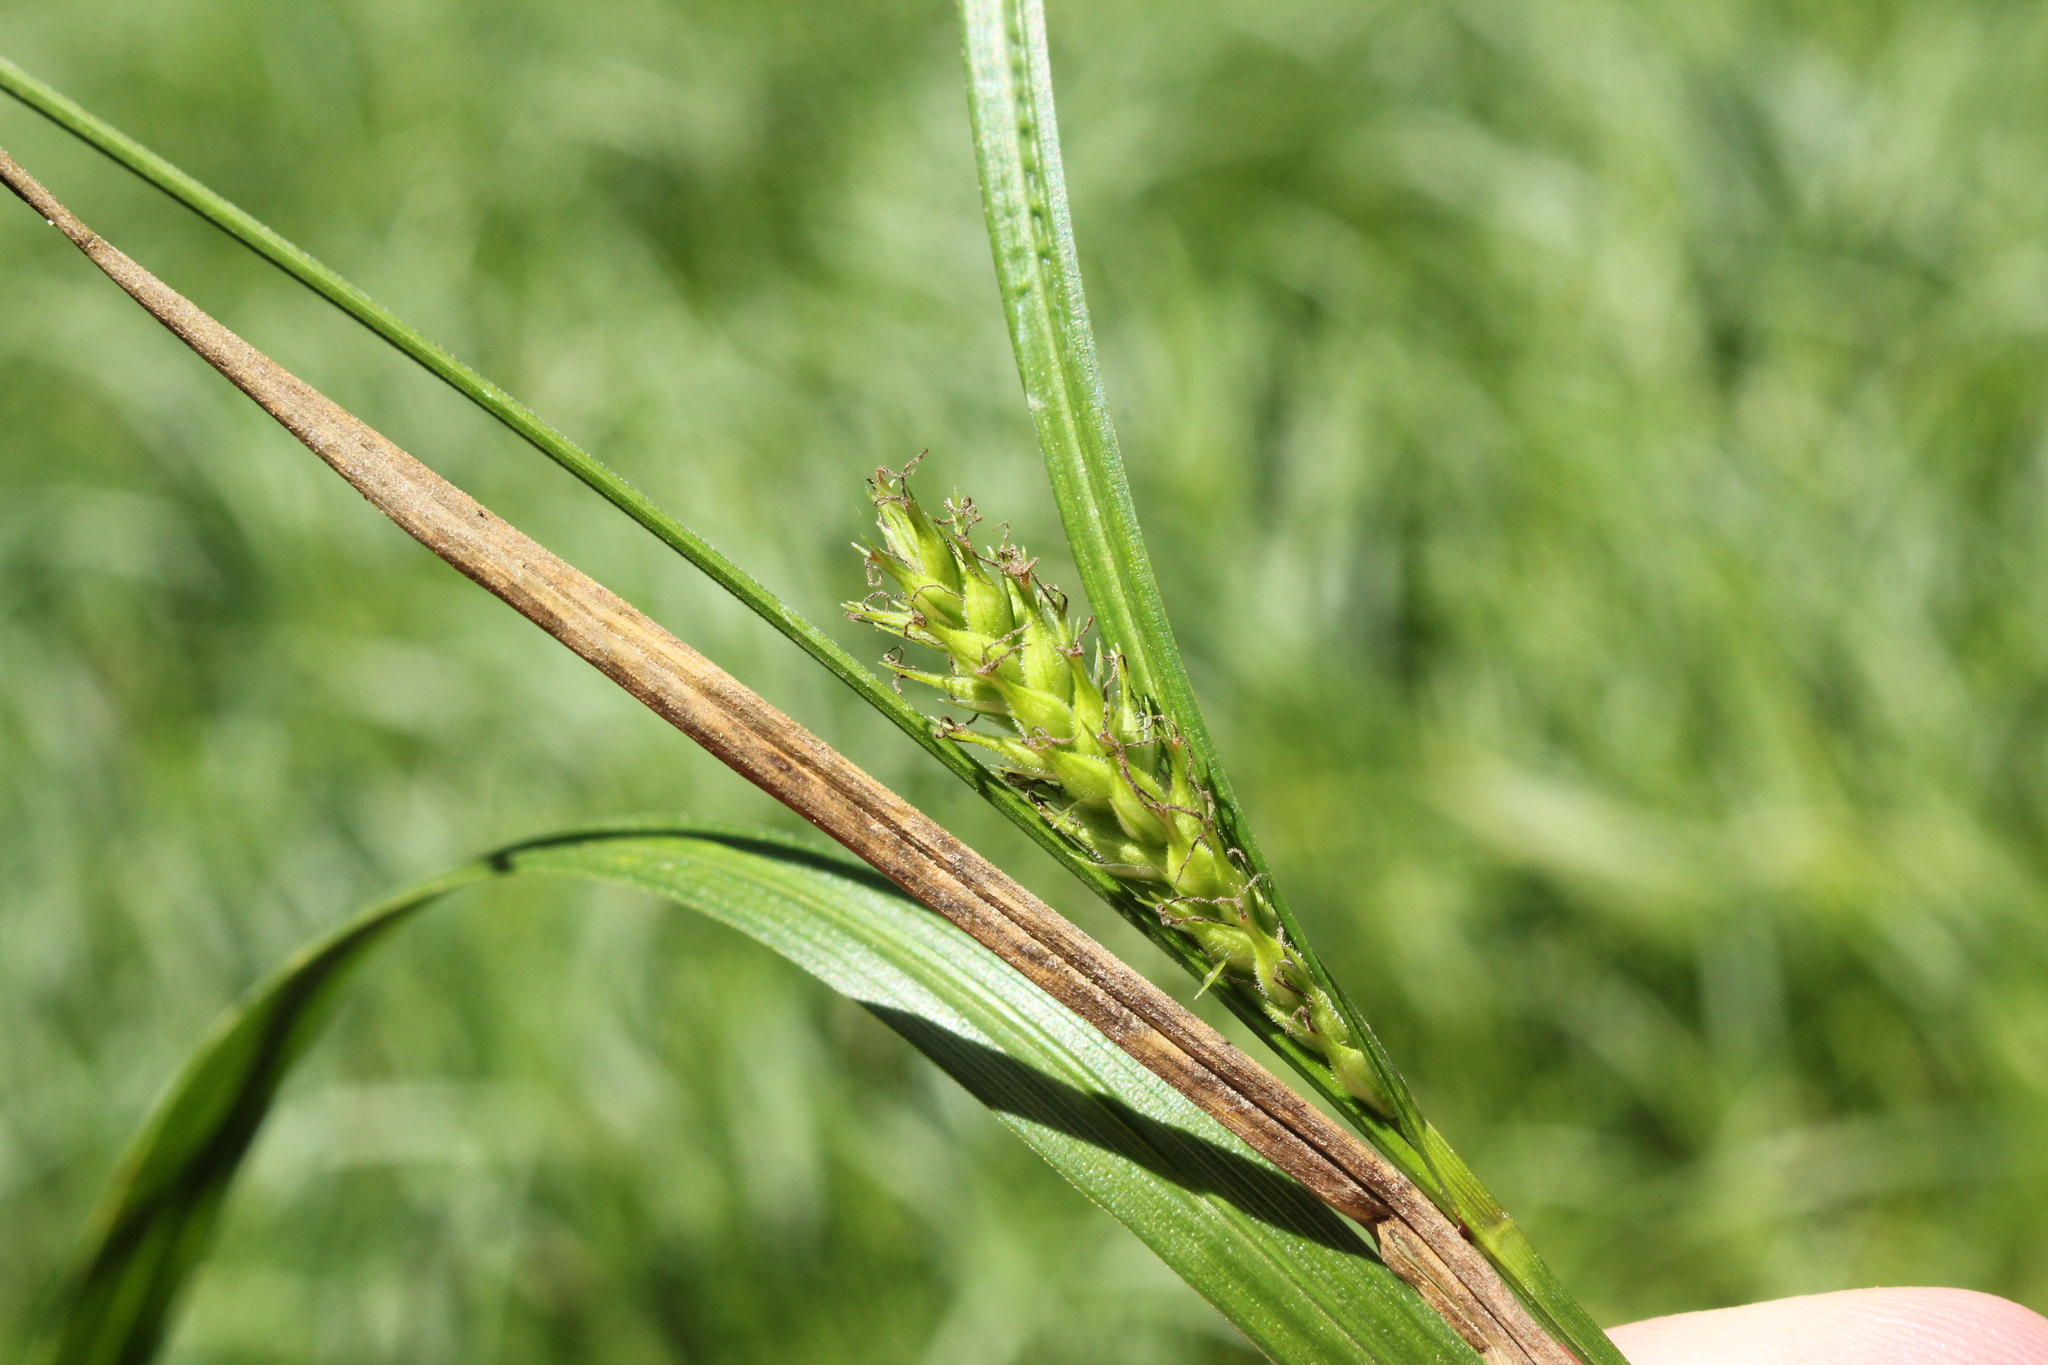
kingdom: Plantae
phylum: Tracheophyta
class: Liliopsida
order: Poales
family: Cyperaceae
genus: Carex
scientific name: Carex trichocarpa
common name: Hairy-fruited lake sedge
